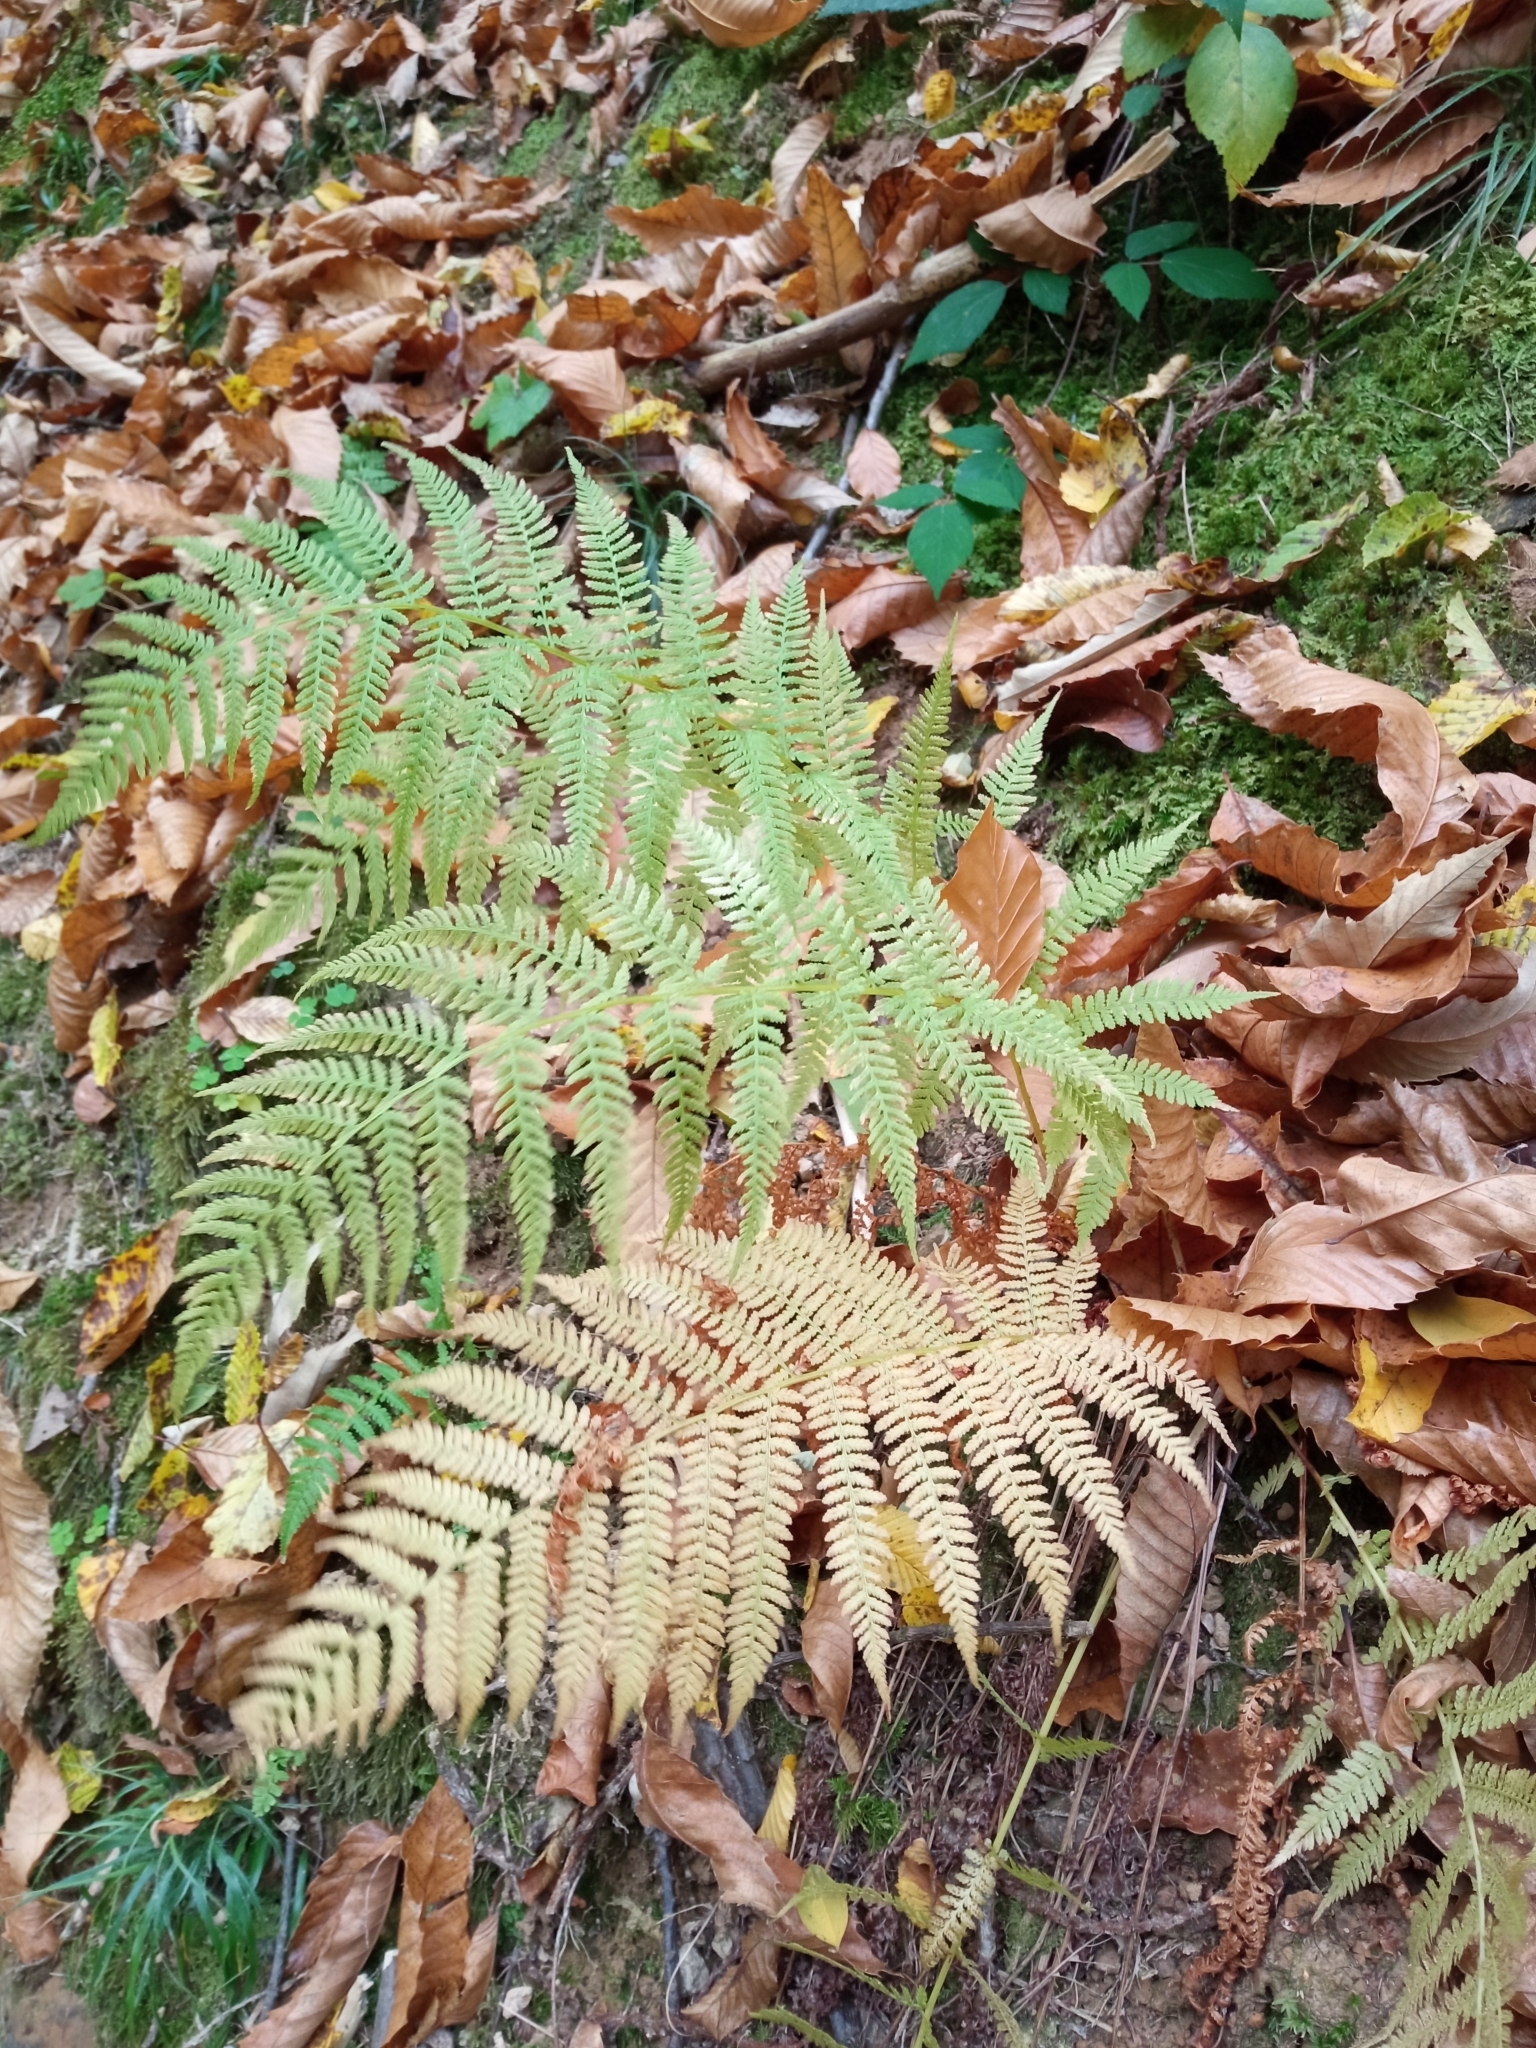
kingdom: Plantae
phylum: Tracheophyta
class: Polypodiopsida
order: Polypodiales
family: Athyriaceae
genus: Athyrium
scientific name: Athyrium filix-femina
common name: Lady fern
